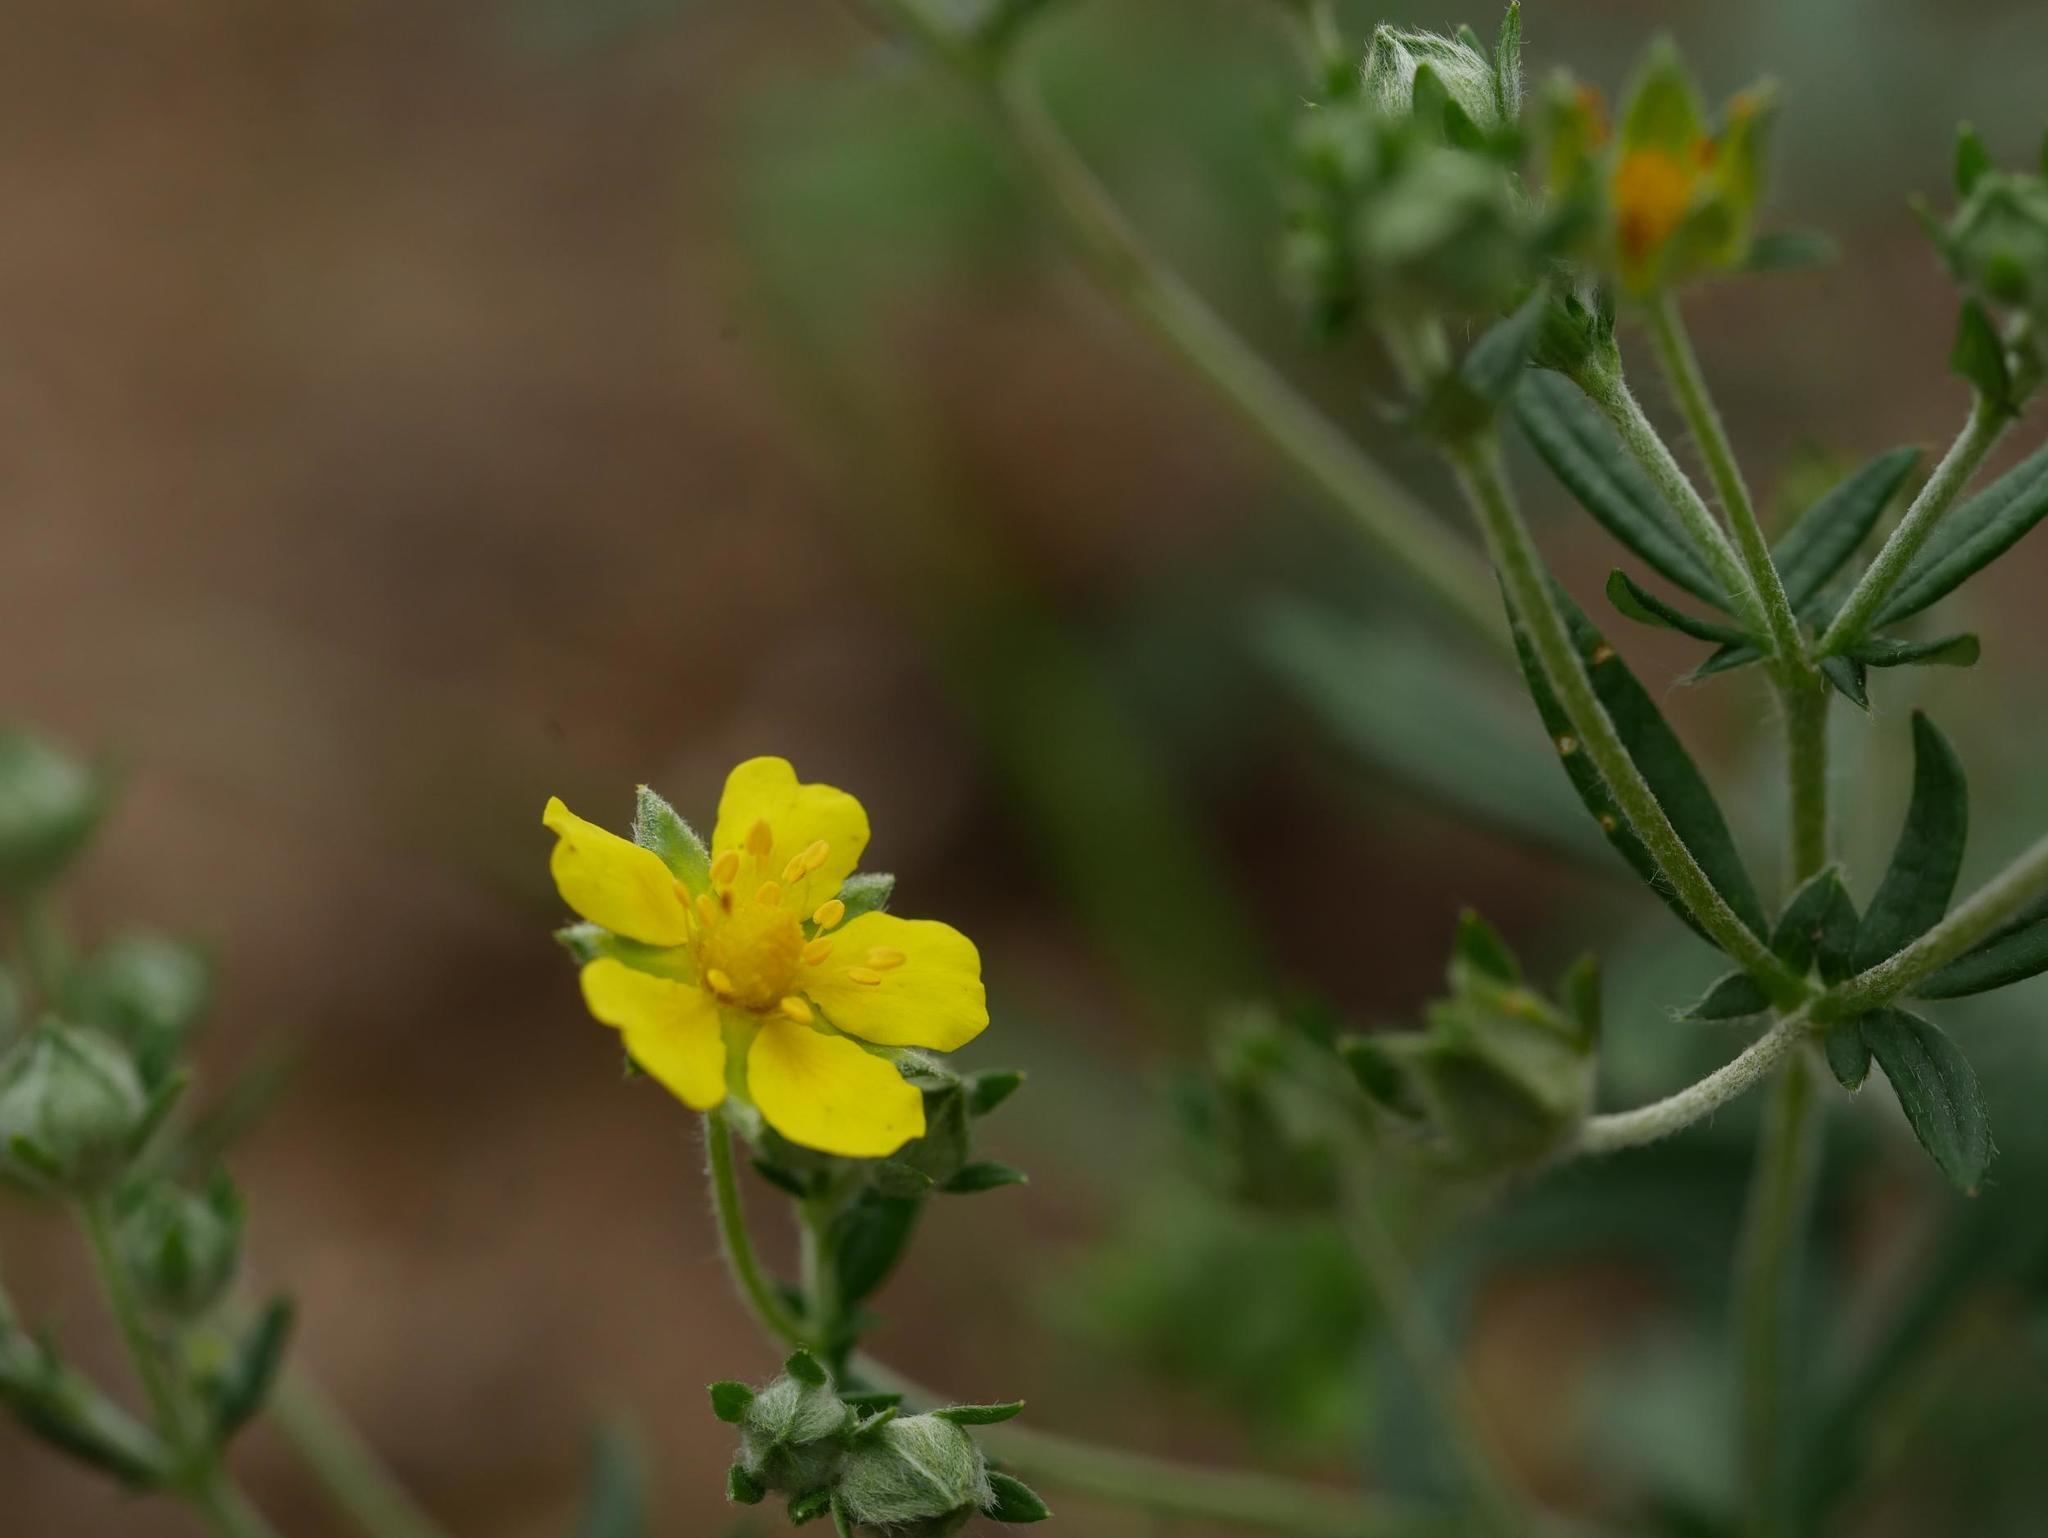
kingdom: Plantae
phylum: Tracheophyta
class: Magnoliopsida
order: Rosales
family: Rosaceae
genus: Potentilla
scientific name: Potentilla argentea
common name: Hoary cinquefoil
